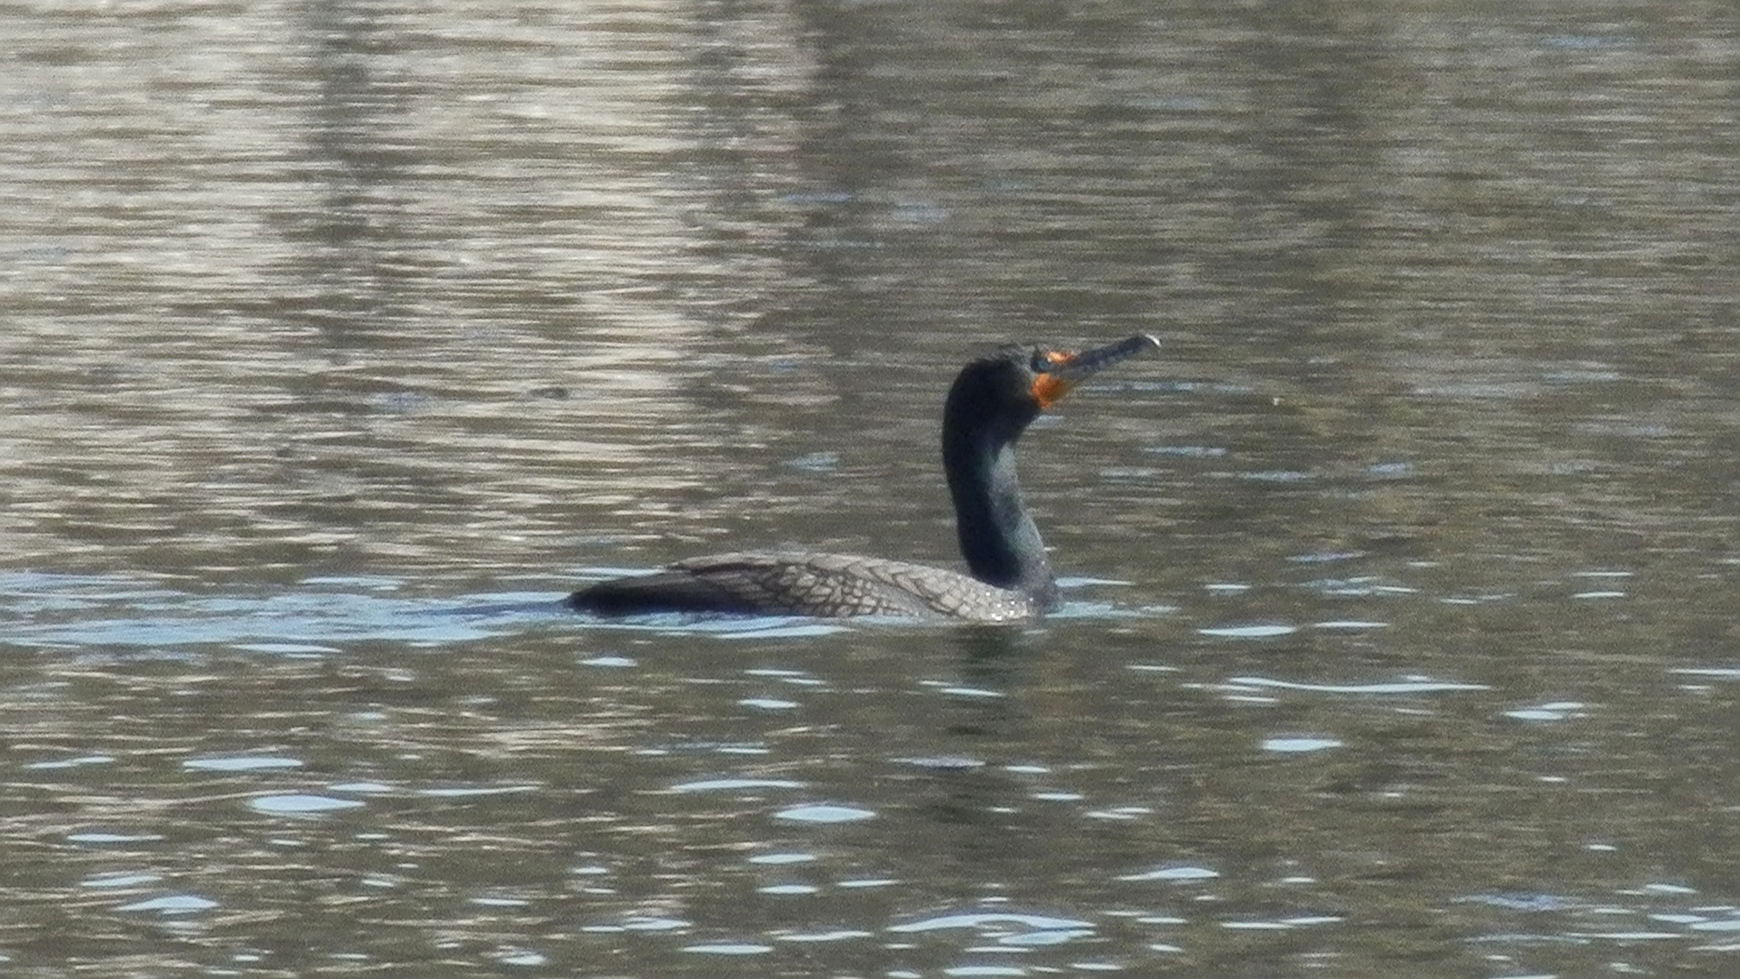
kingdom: Animalia
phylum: Chordata
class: Aves
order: Suliformes
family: Phalacrocoracidae
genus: Phalacrocorax
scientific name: Phalacrocorax auritus
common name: Double-crested cormorant
